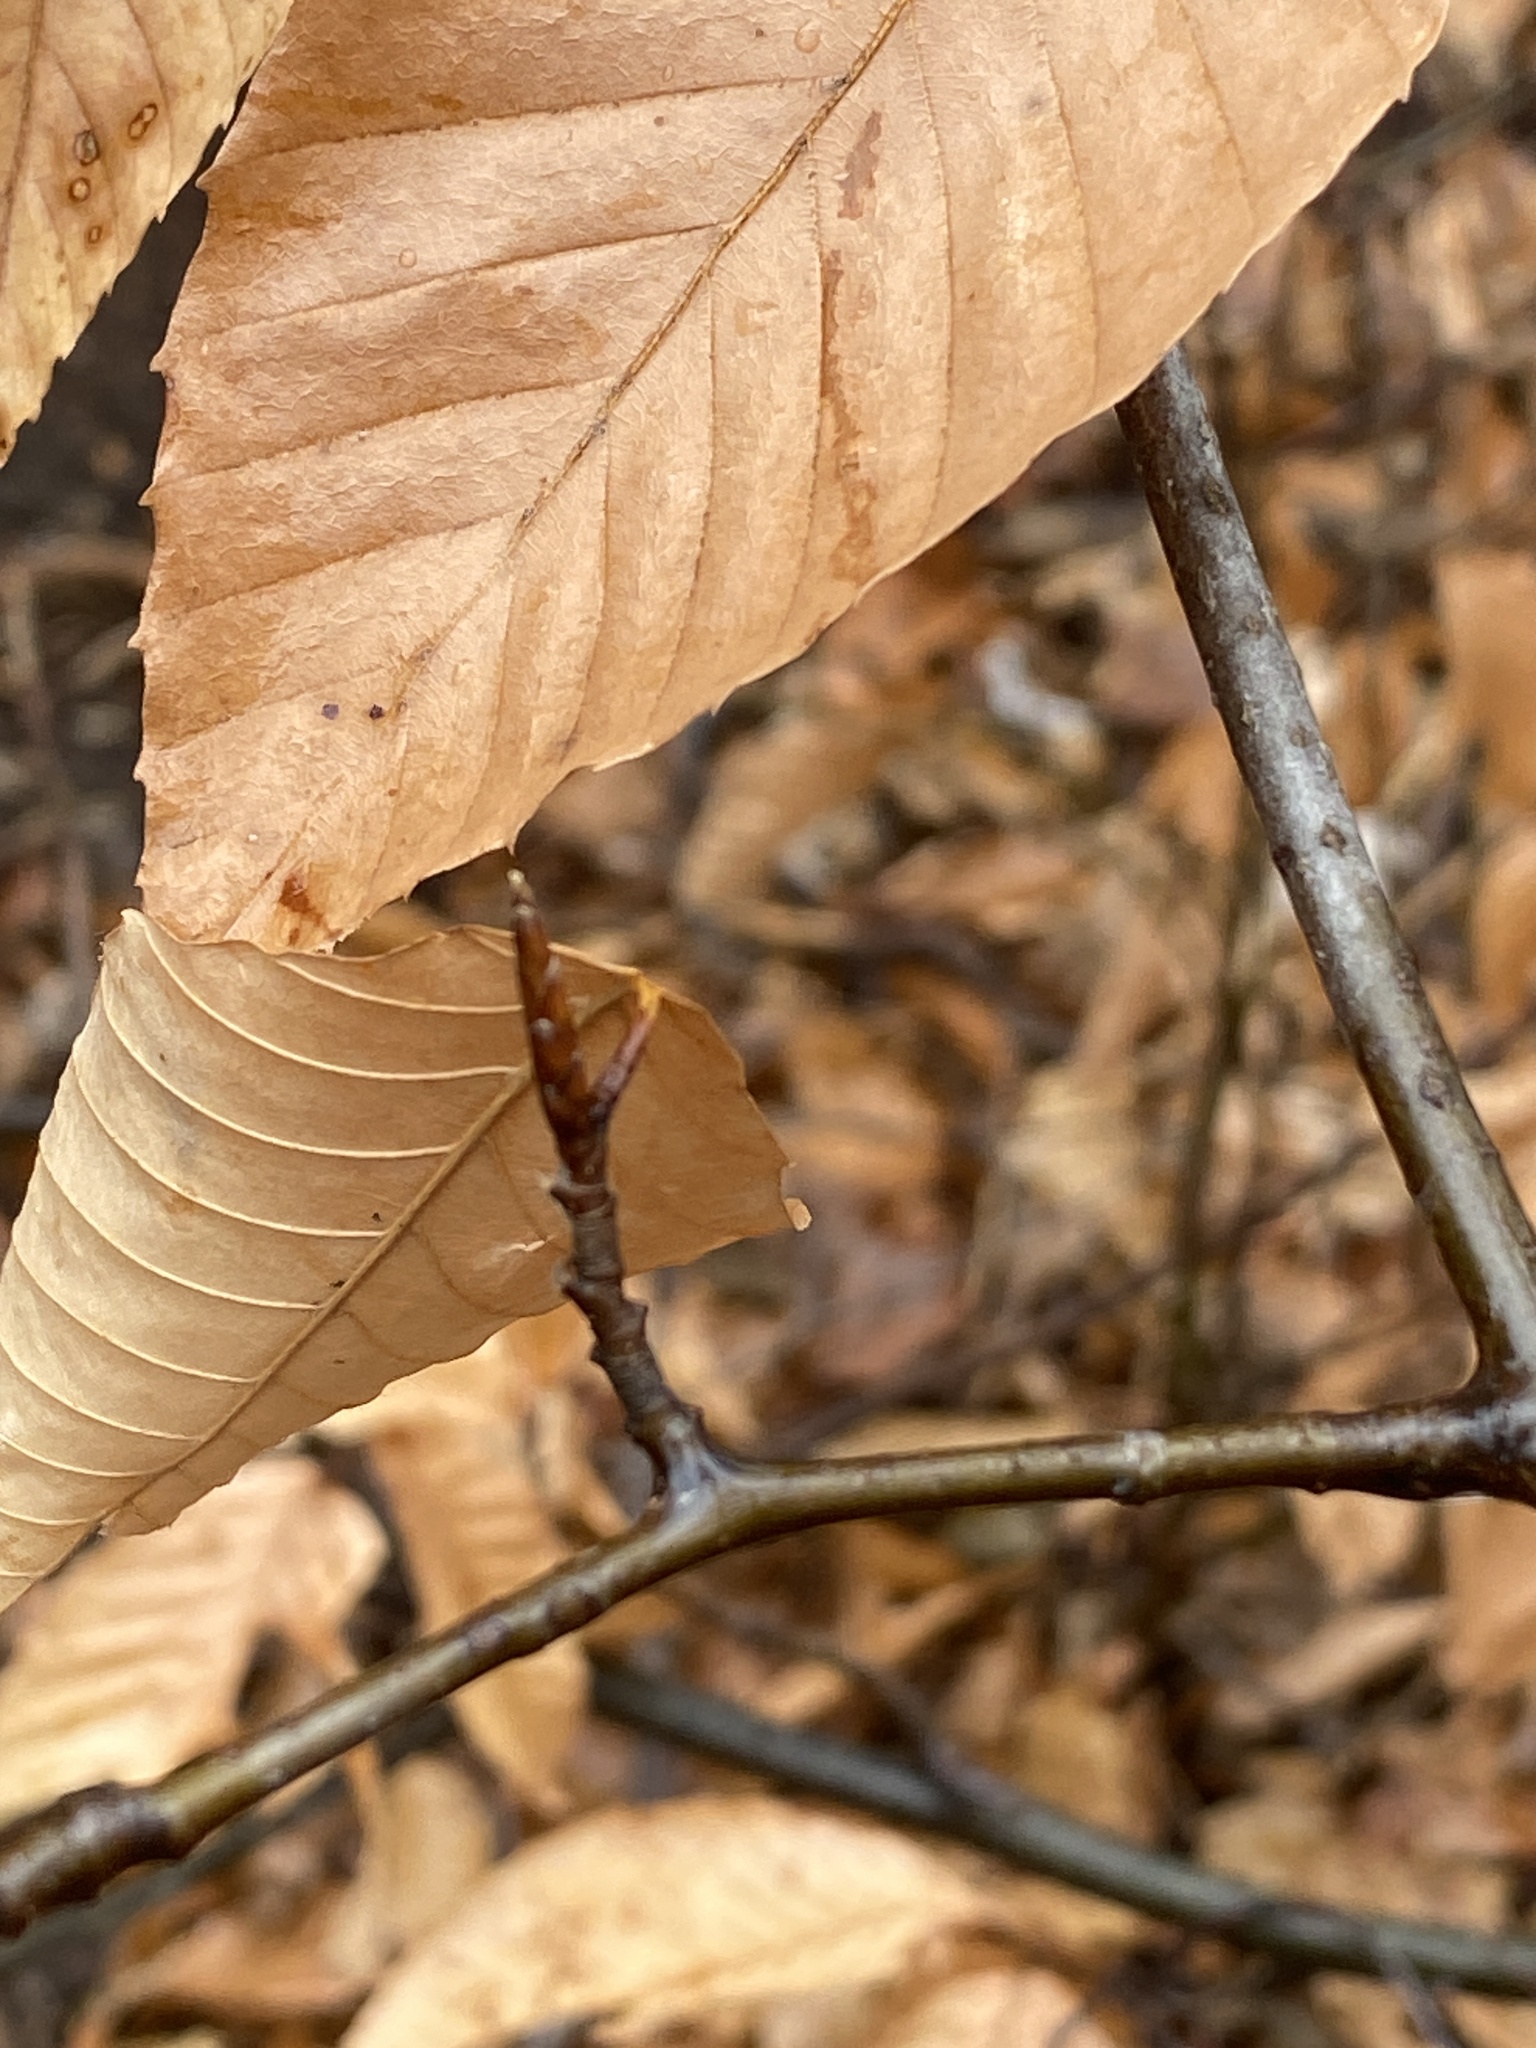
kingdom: Plantae
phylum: Tracheophyta
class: Magnoliopsida
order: Fagales
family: Fagaceae
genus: Fagus
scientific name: Fagus grandifolia
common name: American beech
